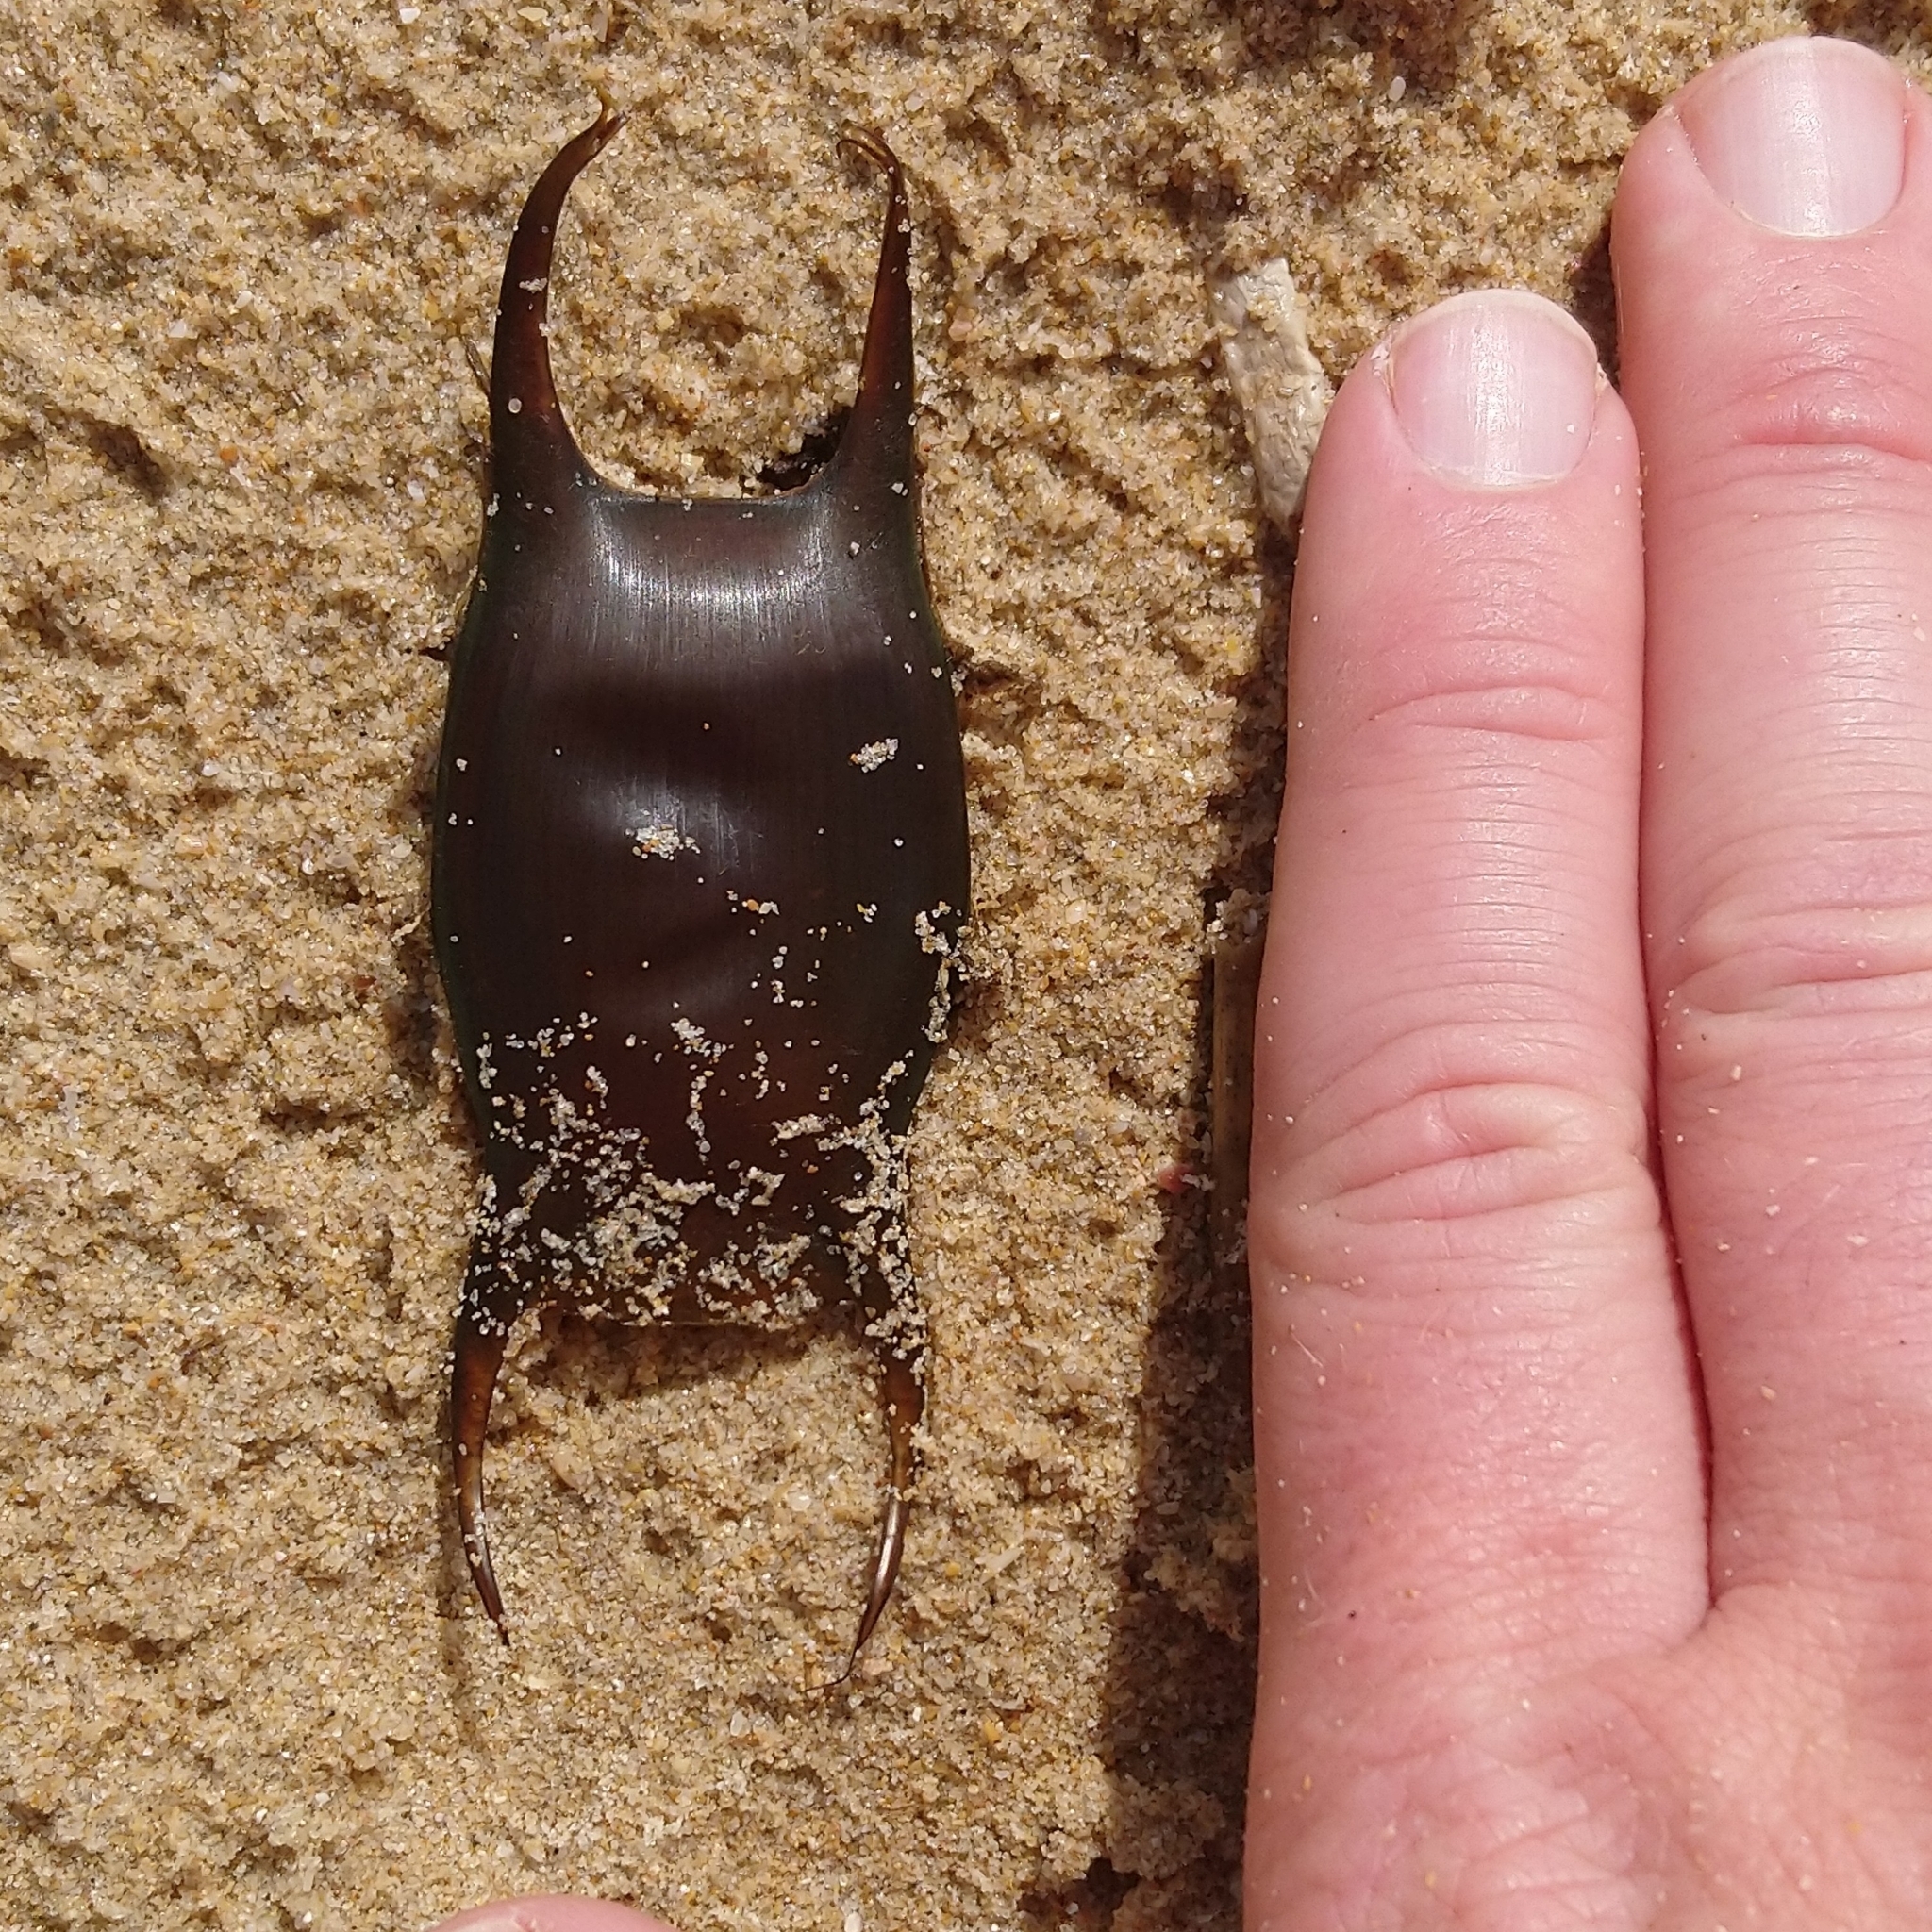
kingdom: Animalia
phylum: Chordata
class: Elasmobranchii
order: Rajiformes
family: Rajidae
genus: Raja
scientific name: Raja ocellifera
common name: Twineye skate
